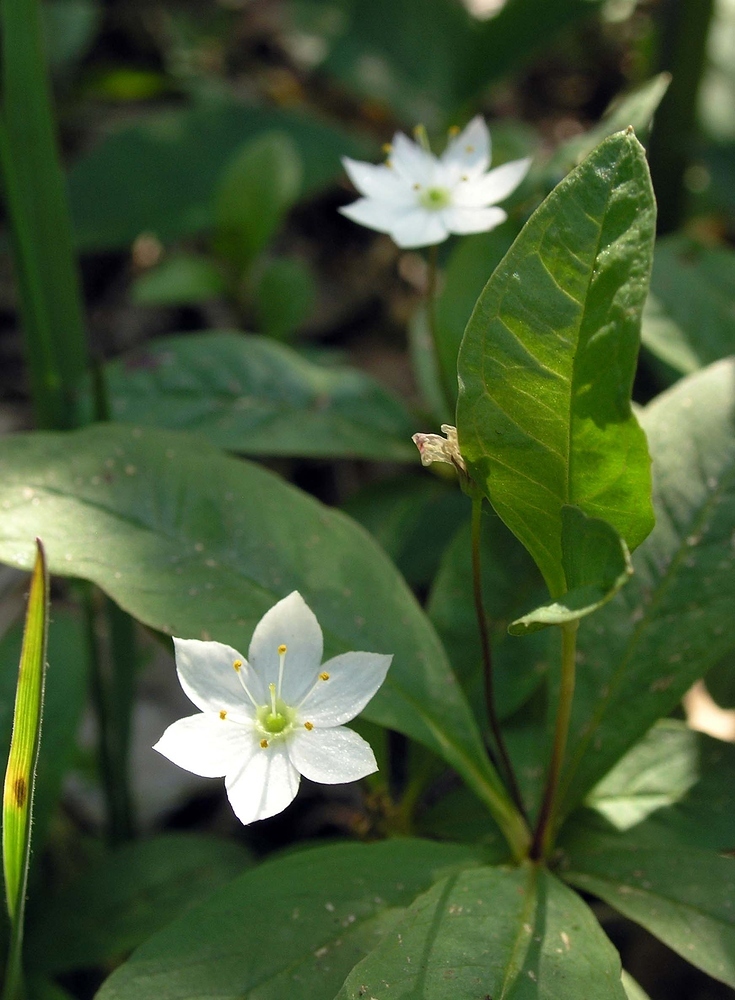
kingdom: Plantae
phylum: Tracheophyta
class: Magnoliopsida
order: Ericales
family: Primulaceae
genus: Lysimachia
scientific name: Lysimachia europaea
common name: Arctic starflower
